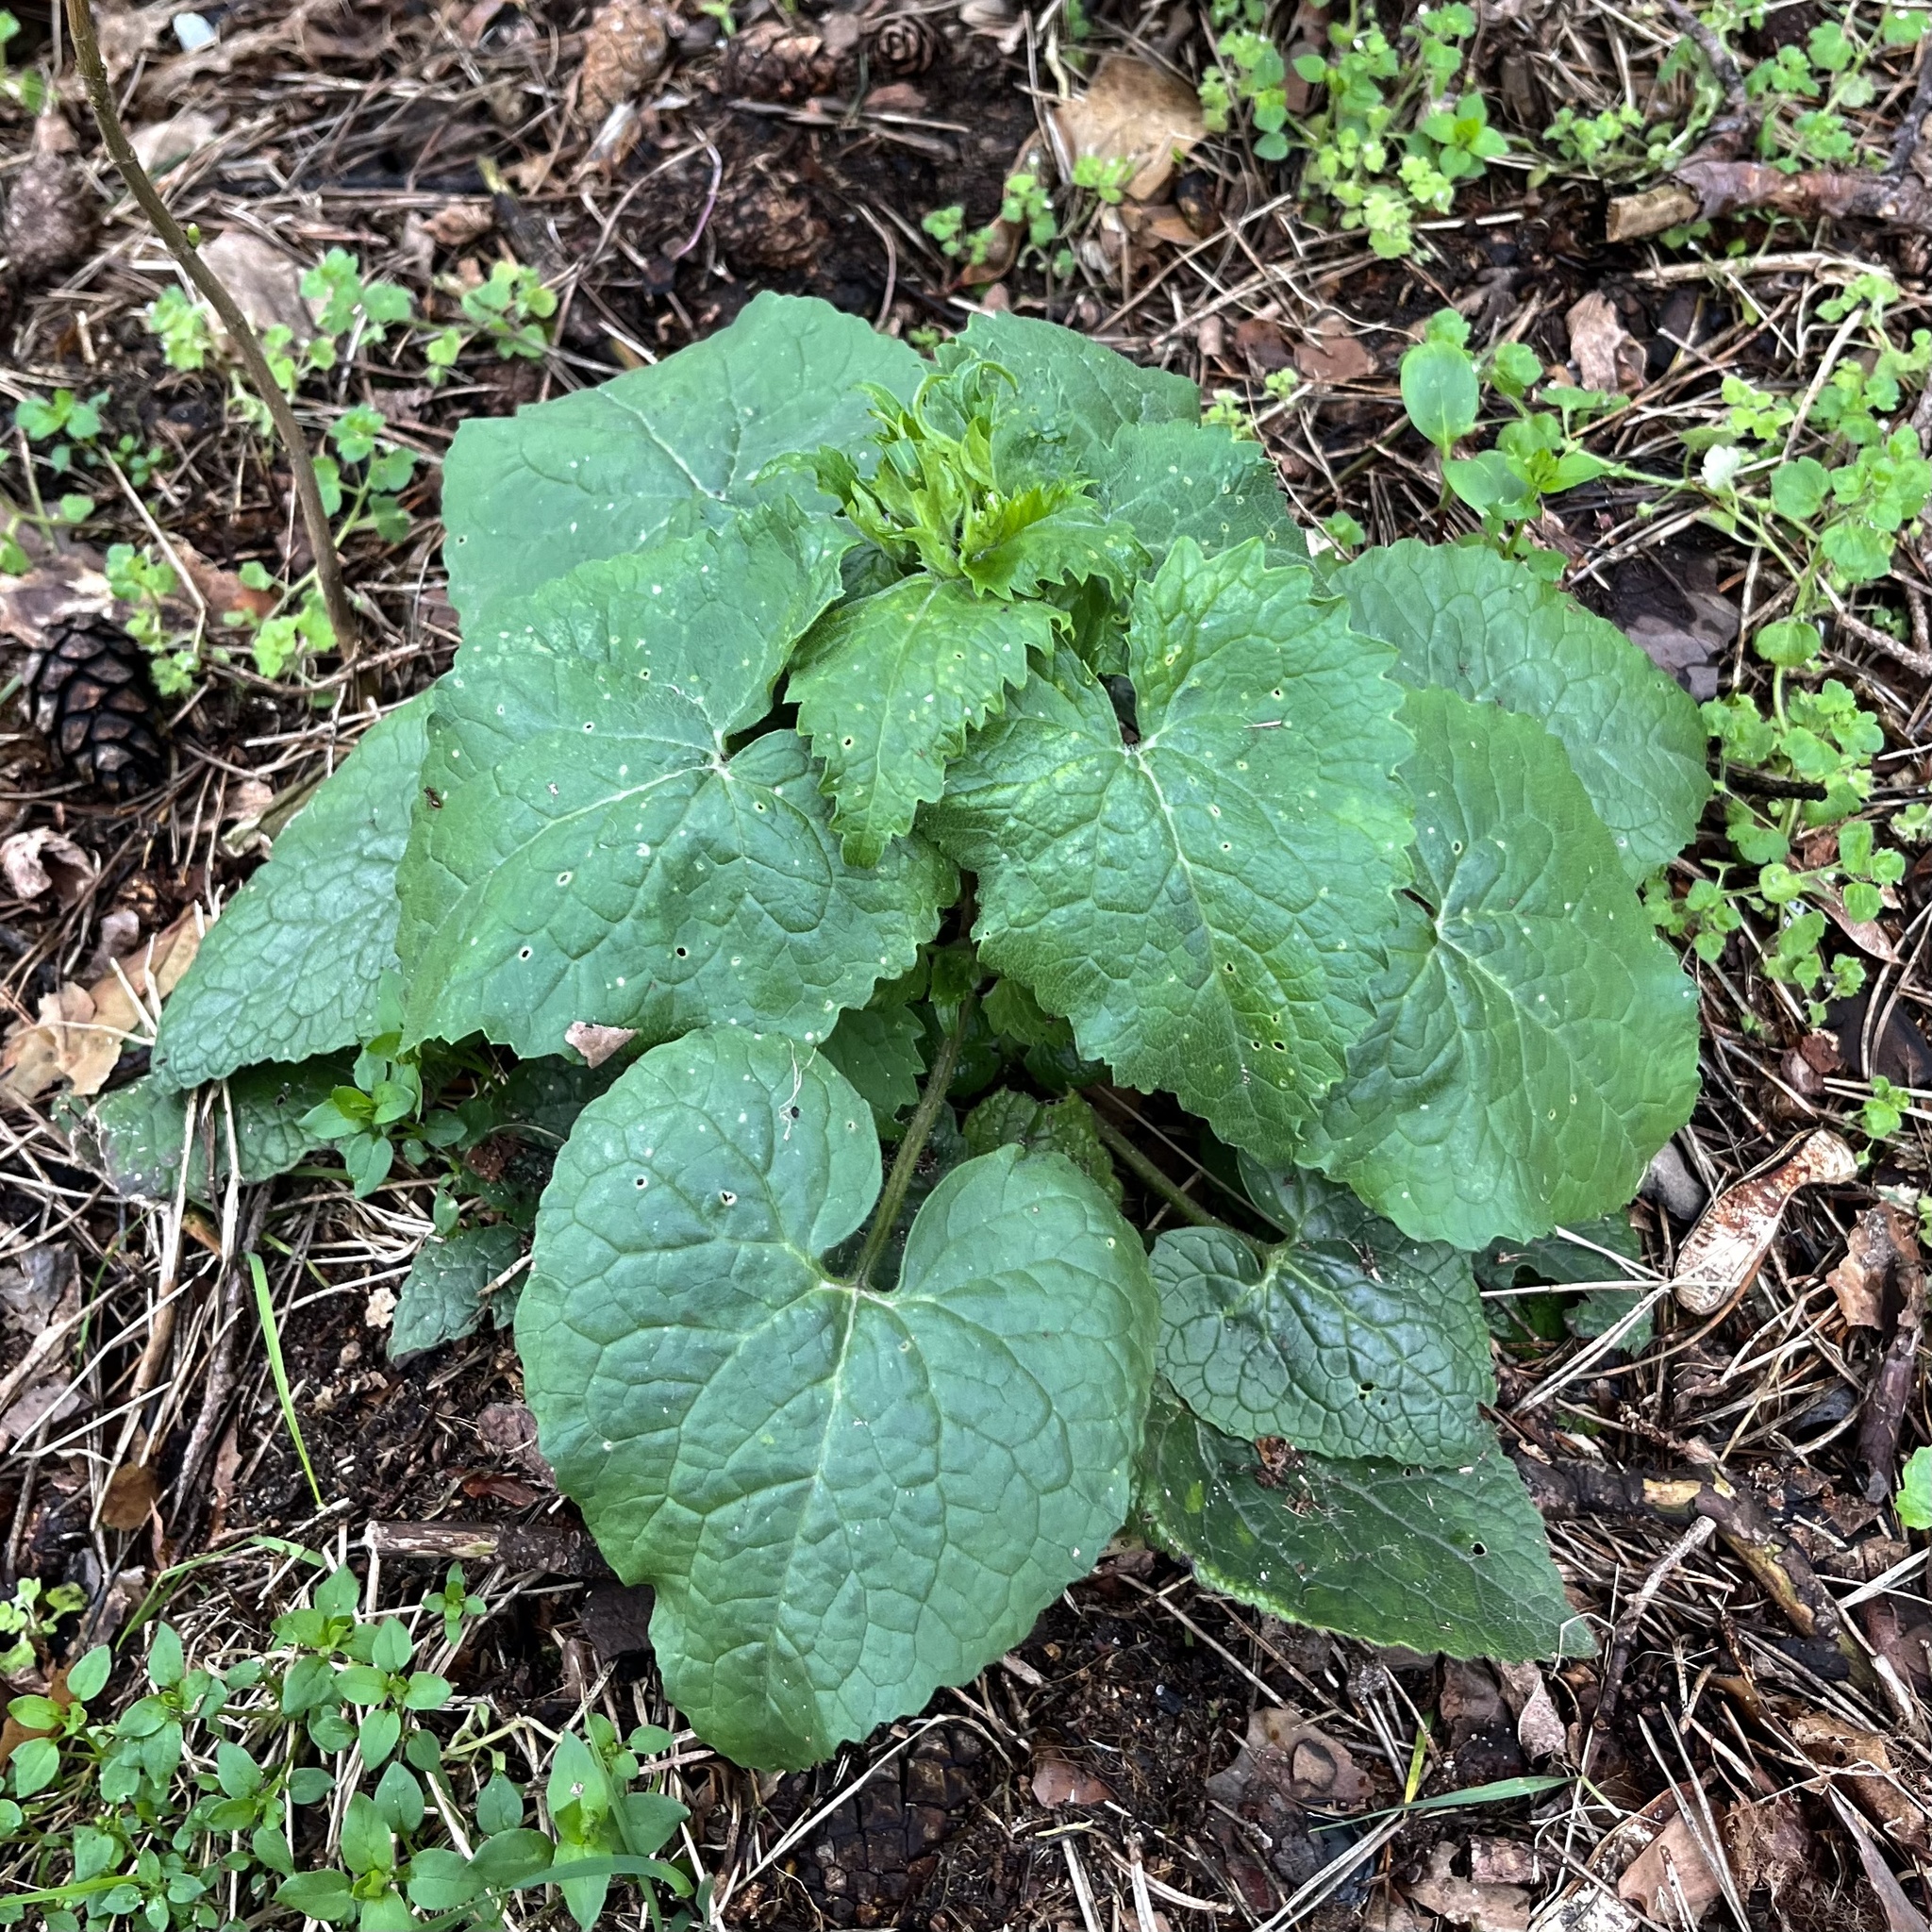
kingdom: Plantae
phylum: Tracheophyta
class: Magnoliopsida
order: Brassicales
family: Brassicaceae
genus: Lunaria
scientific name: Lunaria annua
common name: Honesty
